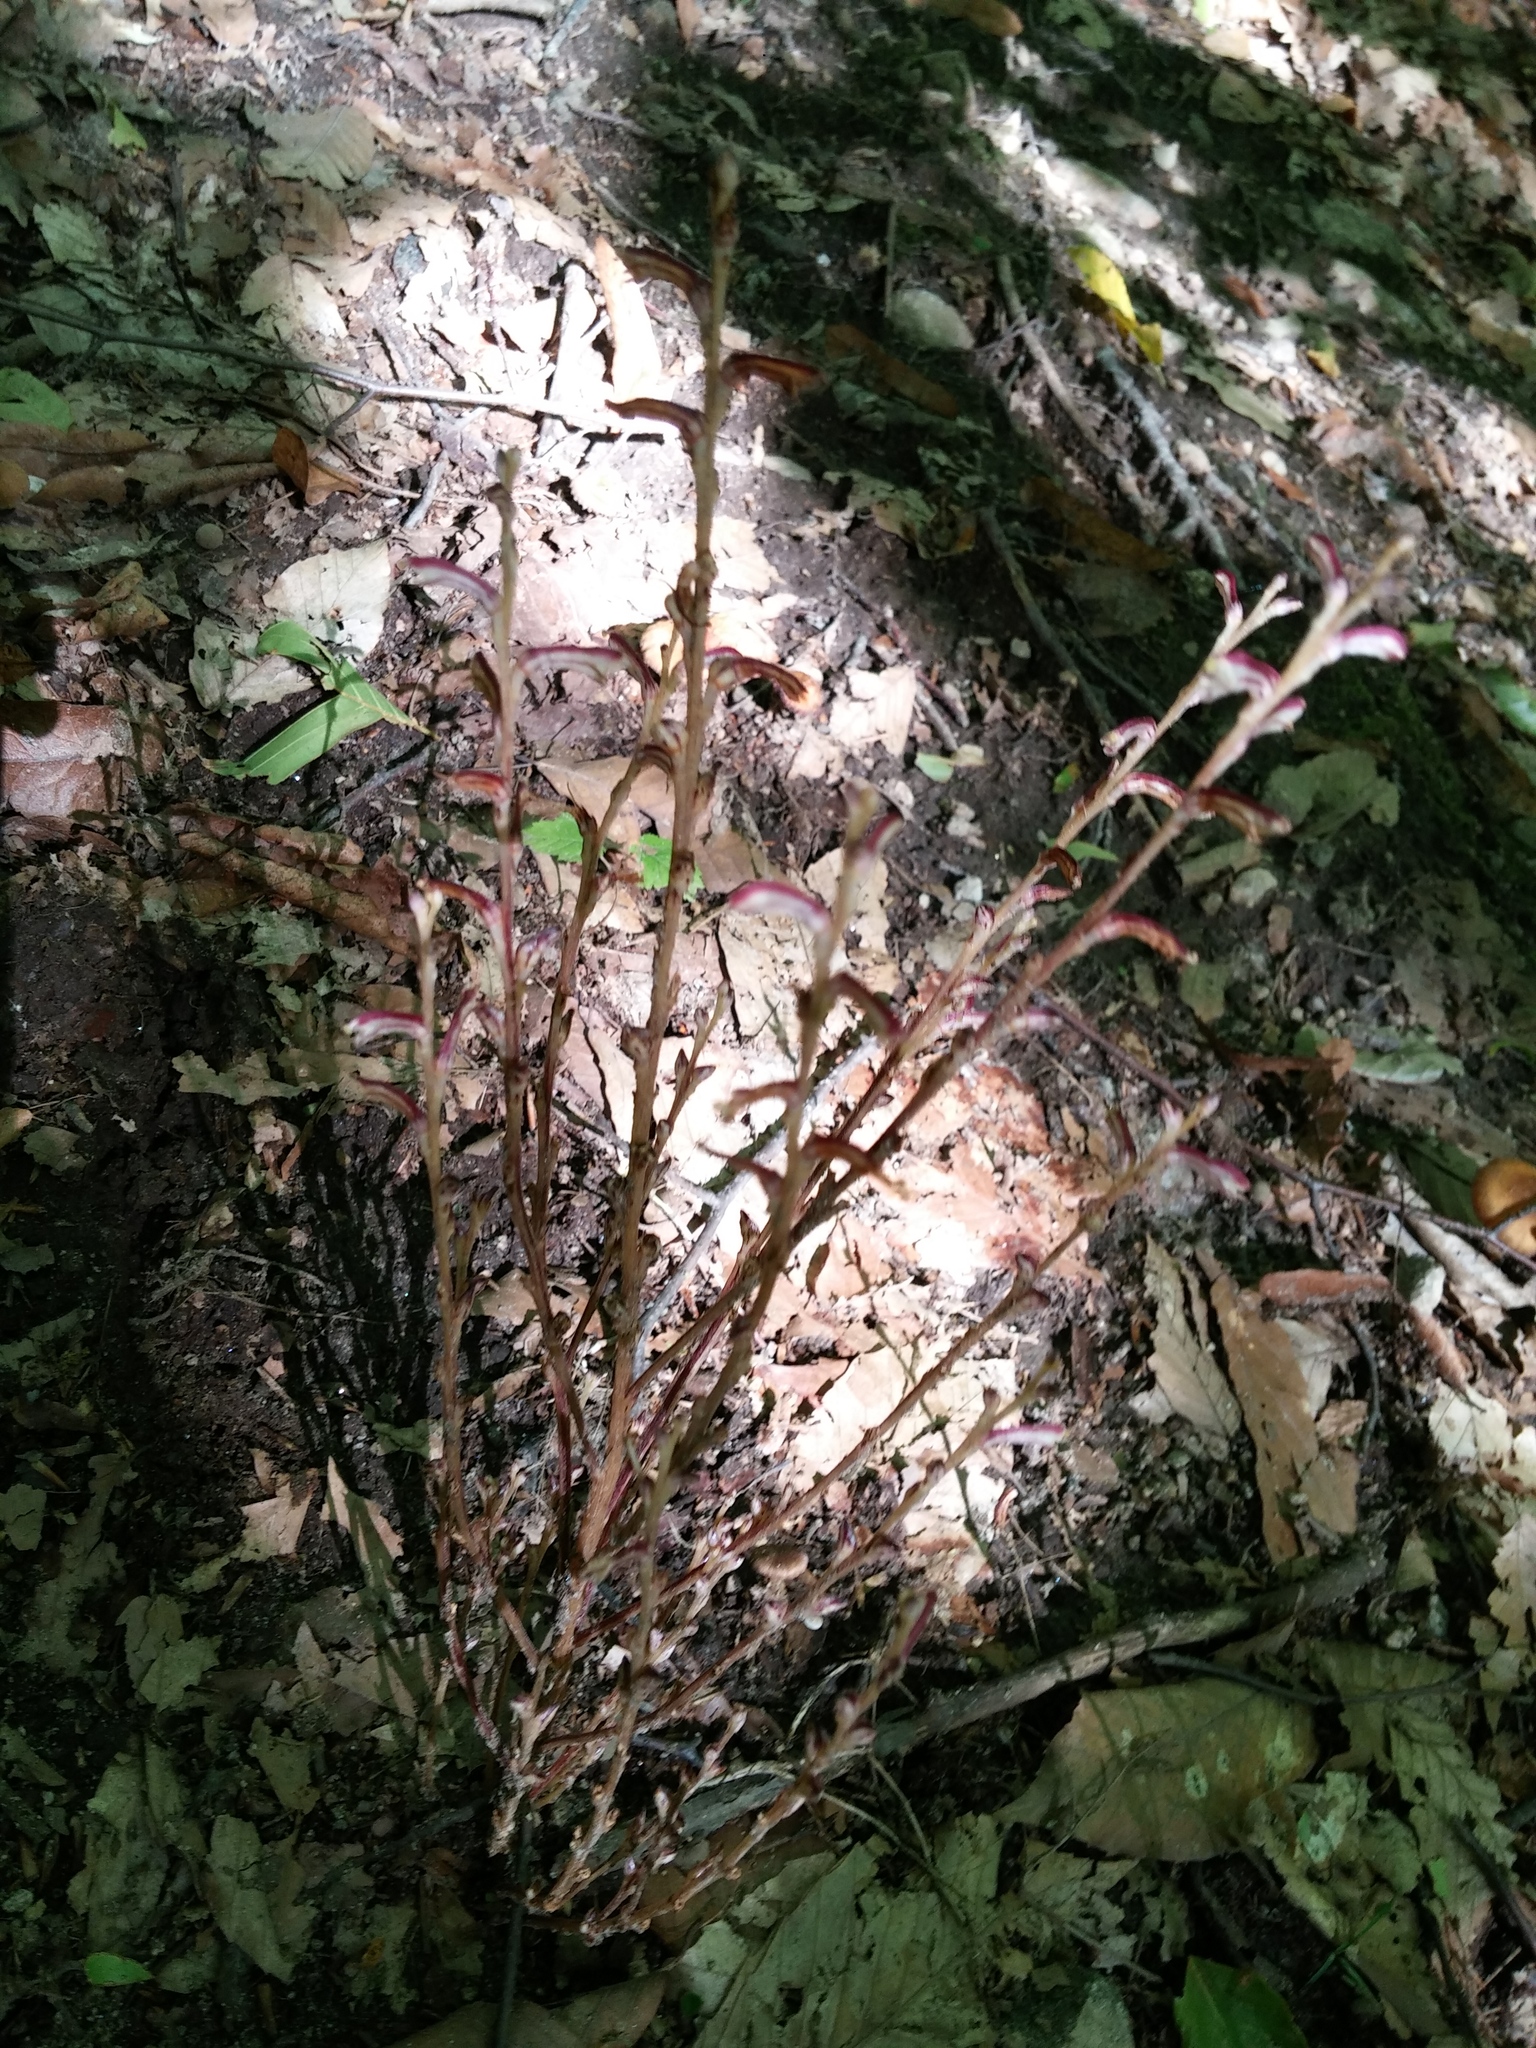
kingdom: Plantae
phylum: Tracheophyta
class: Magnoliopsida
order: Lamiales
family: Orobanchaceae
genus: Epifagus
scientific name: Epifagus virginiana
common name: Beechdrops
